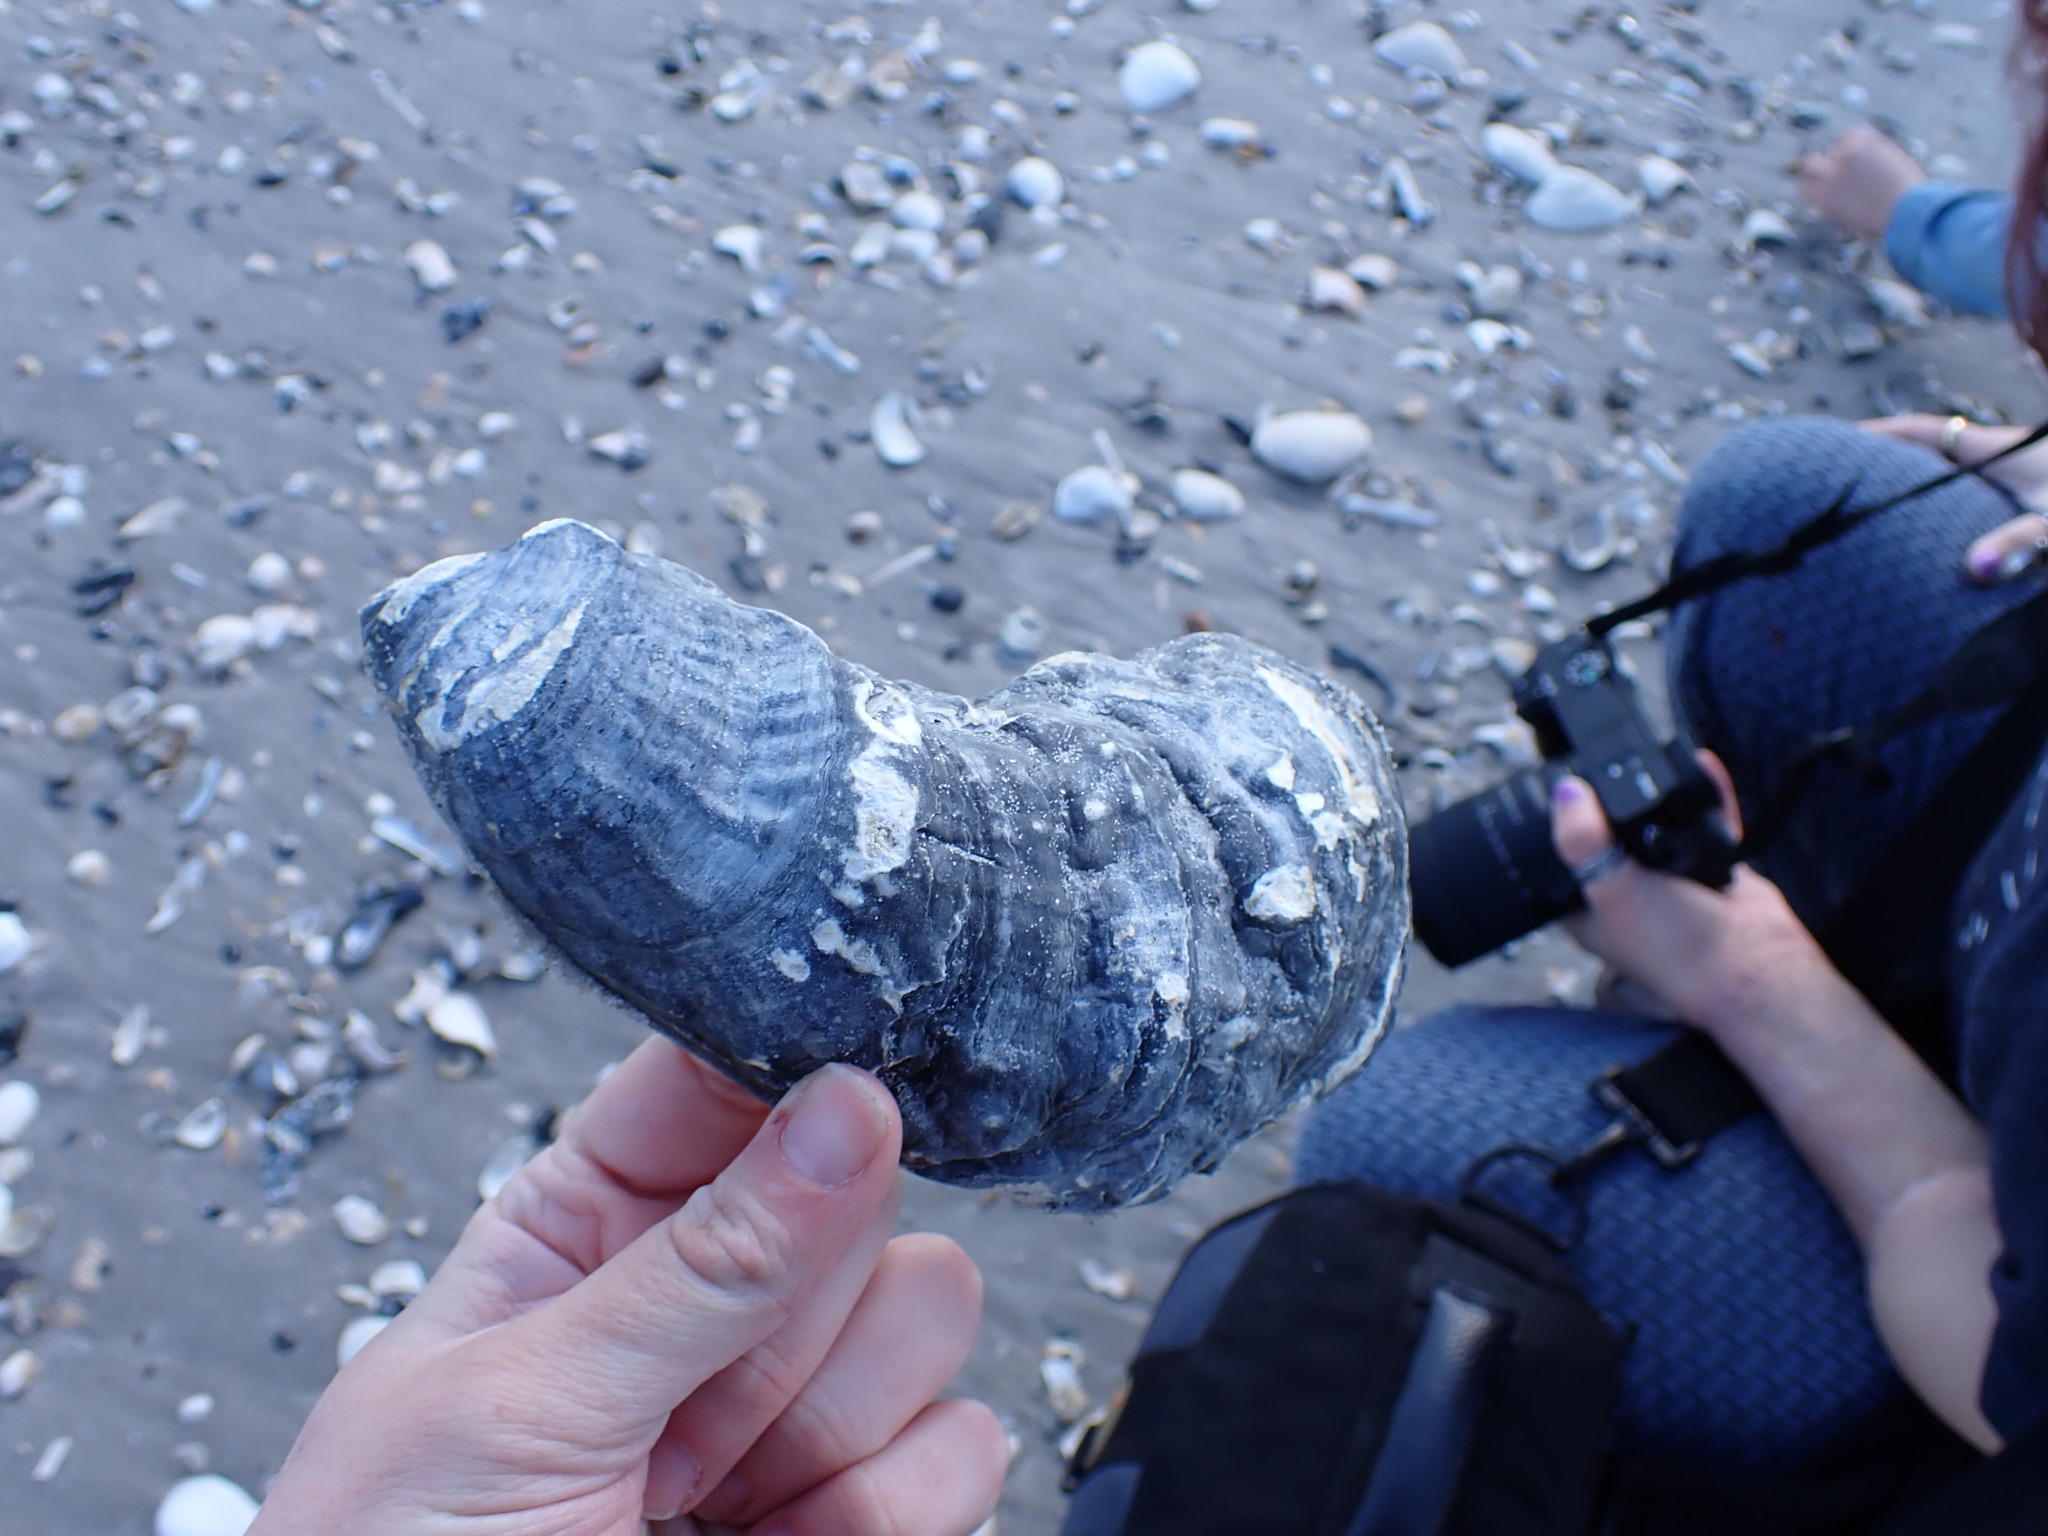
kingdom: Animalia
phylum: Mollusca
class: Bivalvia
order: Ostreida
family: Ostreidae
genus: Crassostrea
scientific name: Crassostrea virginica
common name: American oyster
